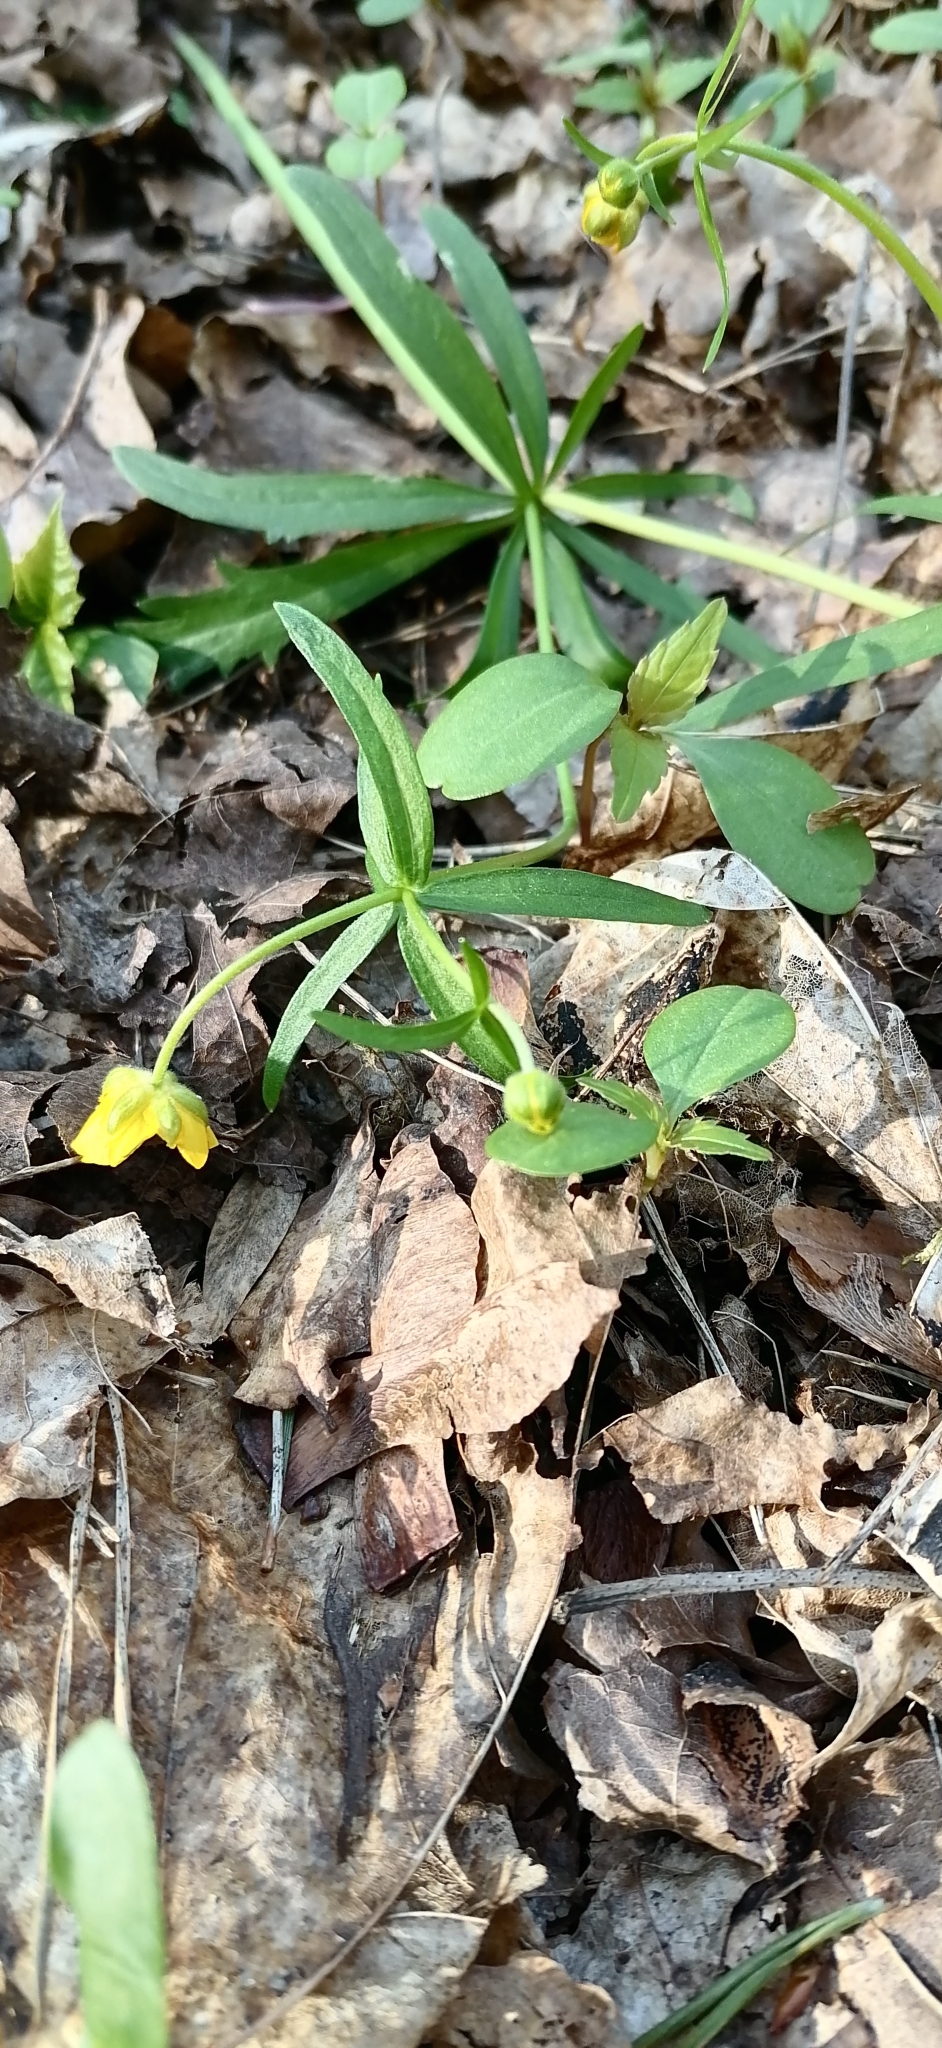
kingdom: Plantae
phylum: Tracheophyta
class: Magnoliopsida
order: Ranunculales
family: Ranunculaceae
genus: Ranunculus
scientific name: Ranunculus auricomus
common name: Goldilocks buttercup
